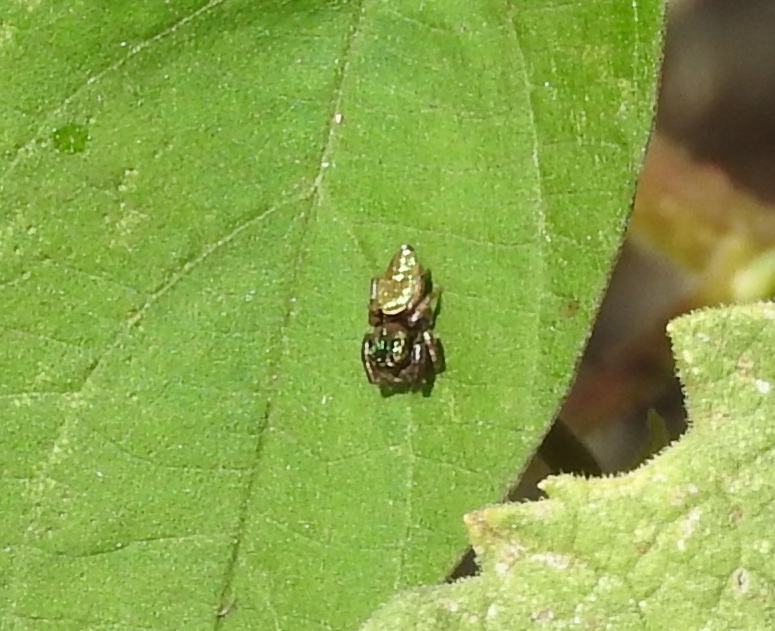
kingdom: Animalia
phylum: Arthropoda
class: Arachnida
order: Araneae
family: Salticidae
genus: Sassacus
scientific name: Sassacus
